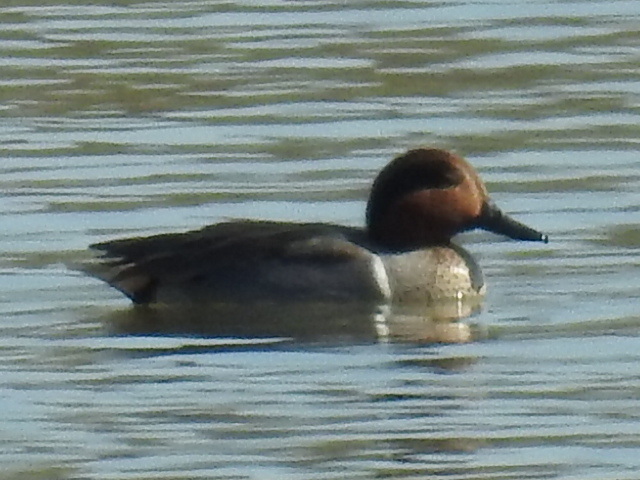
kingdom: Animalia
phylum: Chordata
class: Aves
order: Anseriformes
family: Anatidae
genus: Anas
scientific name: Anas crecca
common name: Eurasian teal
